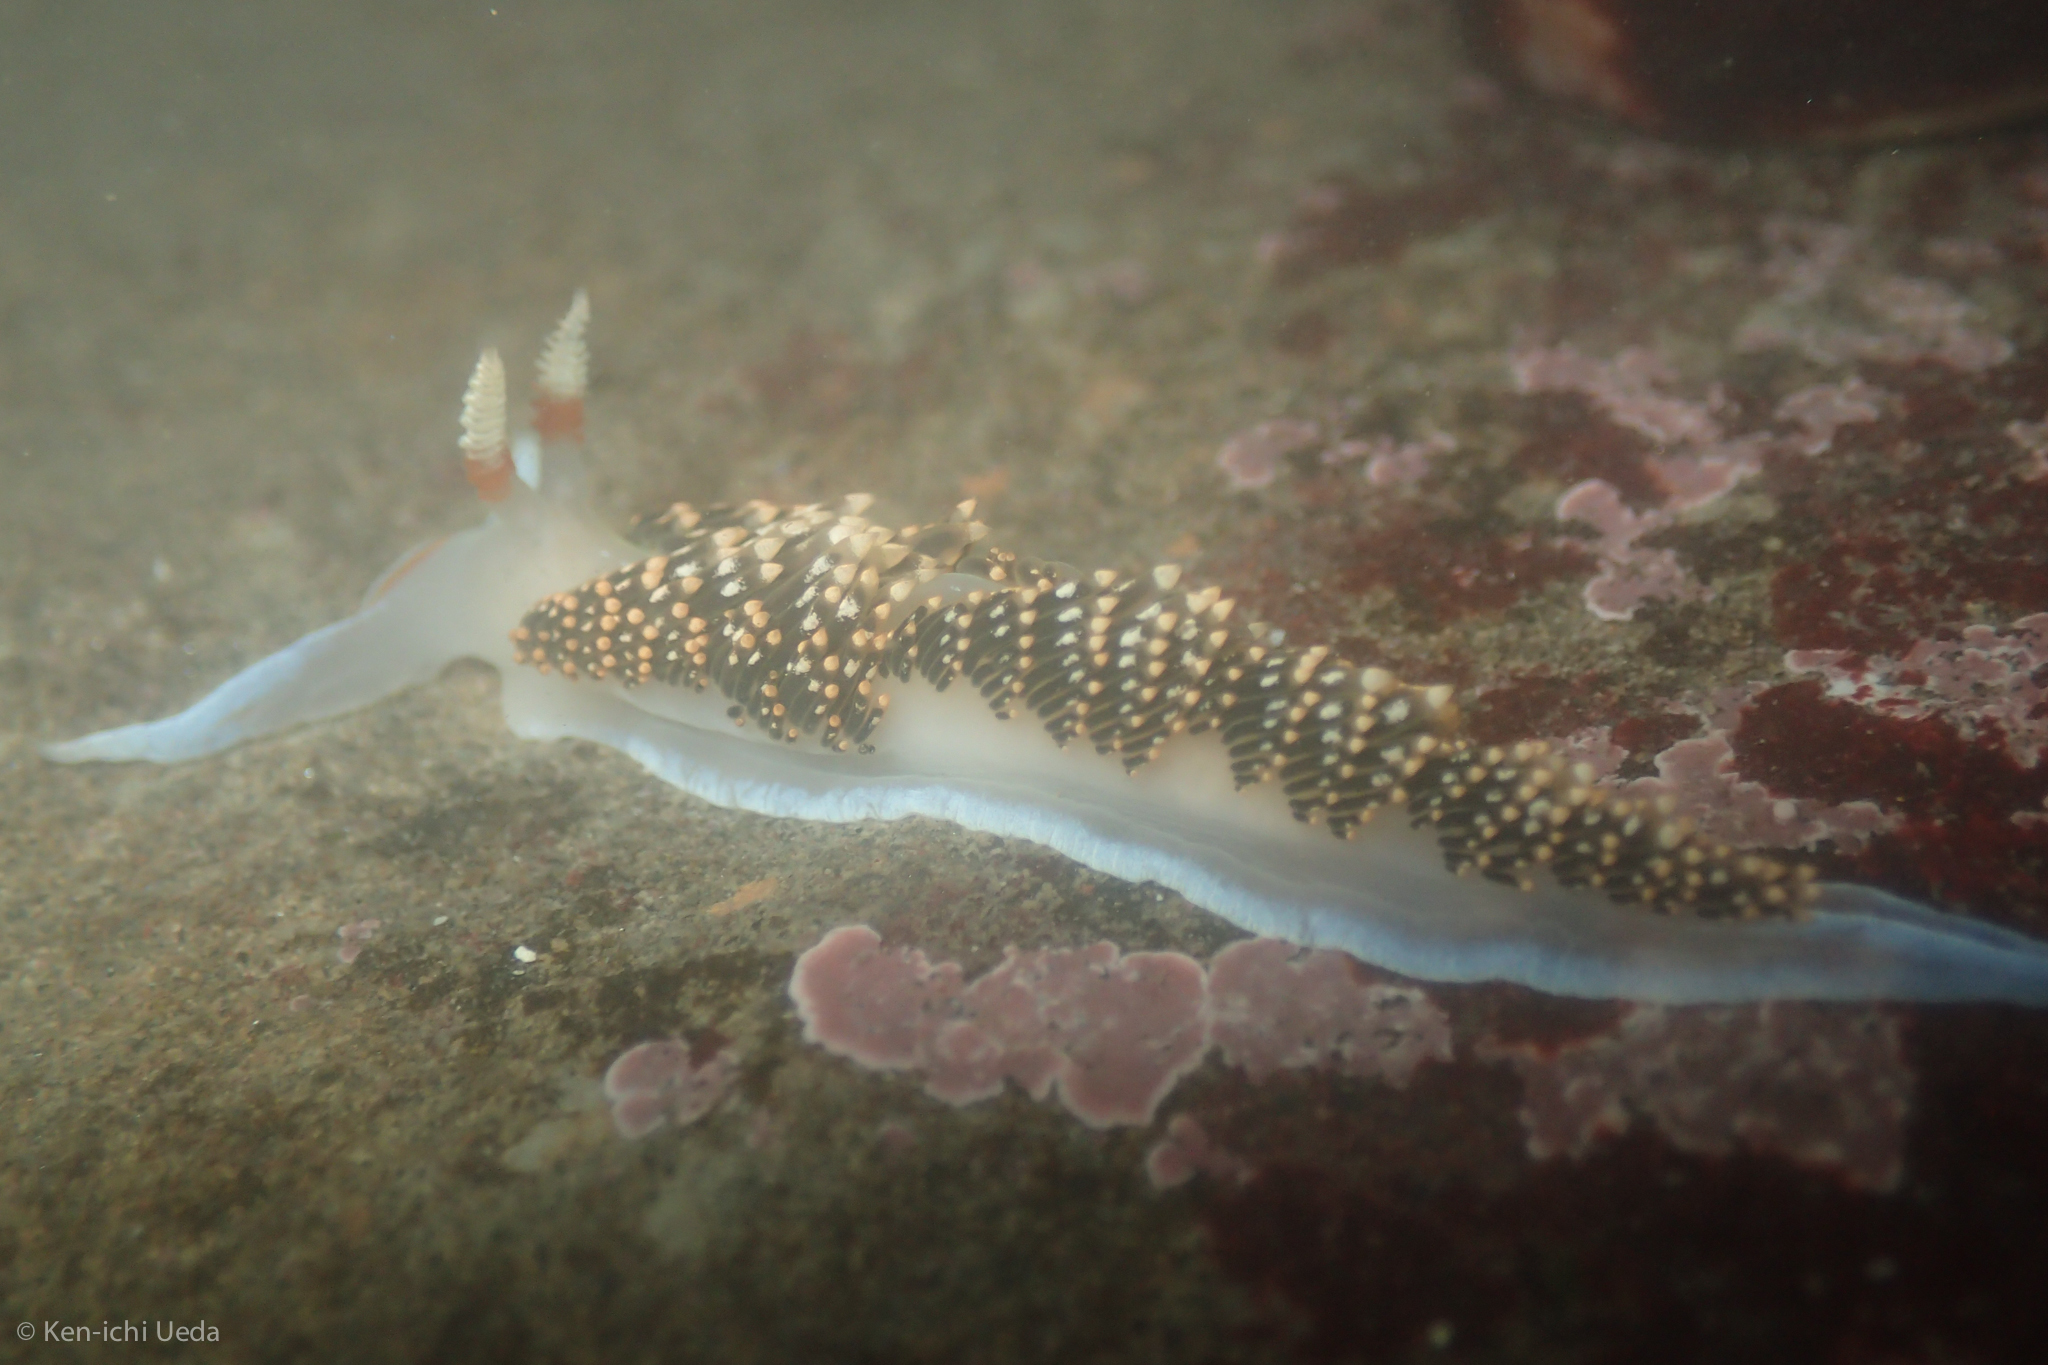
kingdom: Animalia
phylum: Mollusca
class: Gastropoda
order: Nudibranchia
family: Facelinidae
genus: Phidiana
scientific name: Phidiana hiltoni
